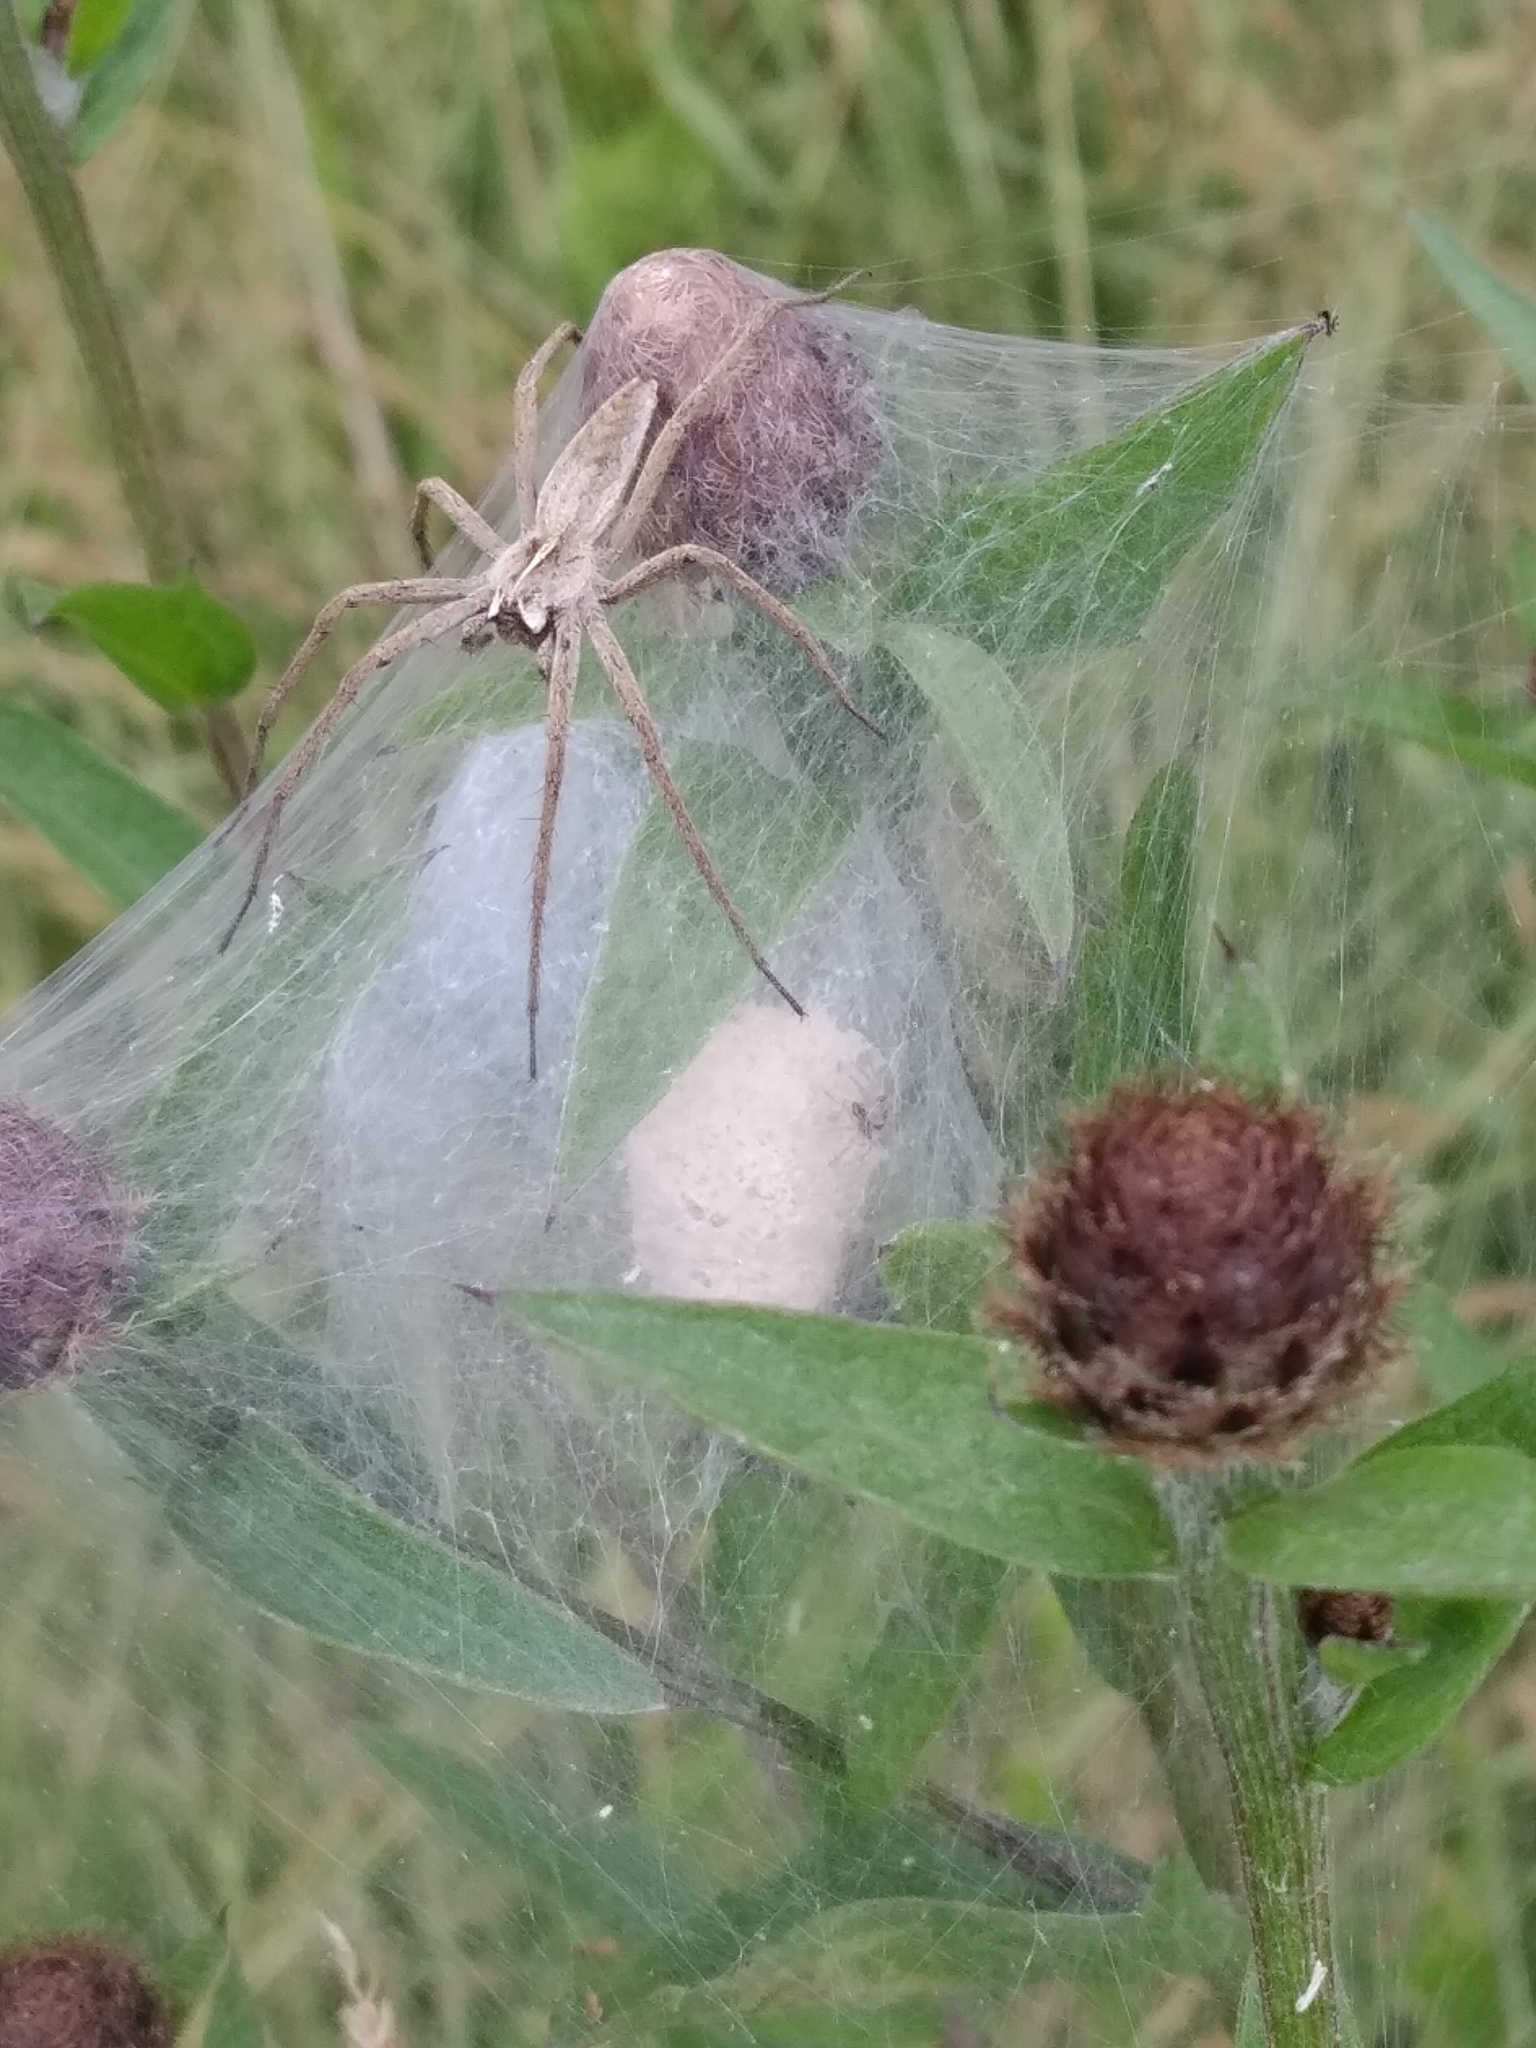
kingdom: Animalia
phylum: Arthropoda
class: Arachnida
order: Araneae
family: Pisauridae
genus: Pisaura
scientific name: Pisaura mirabilis
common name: Tent spider
